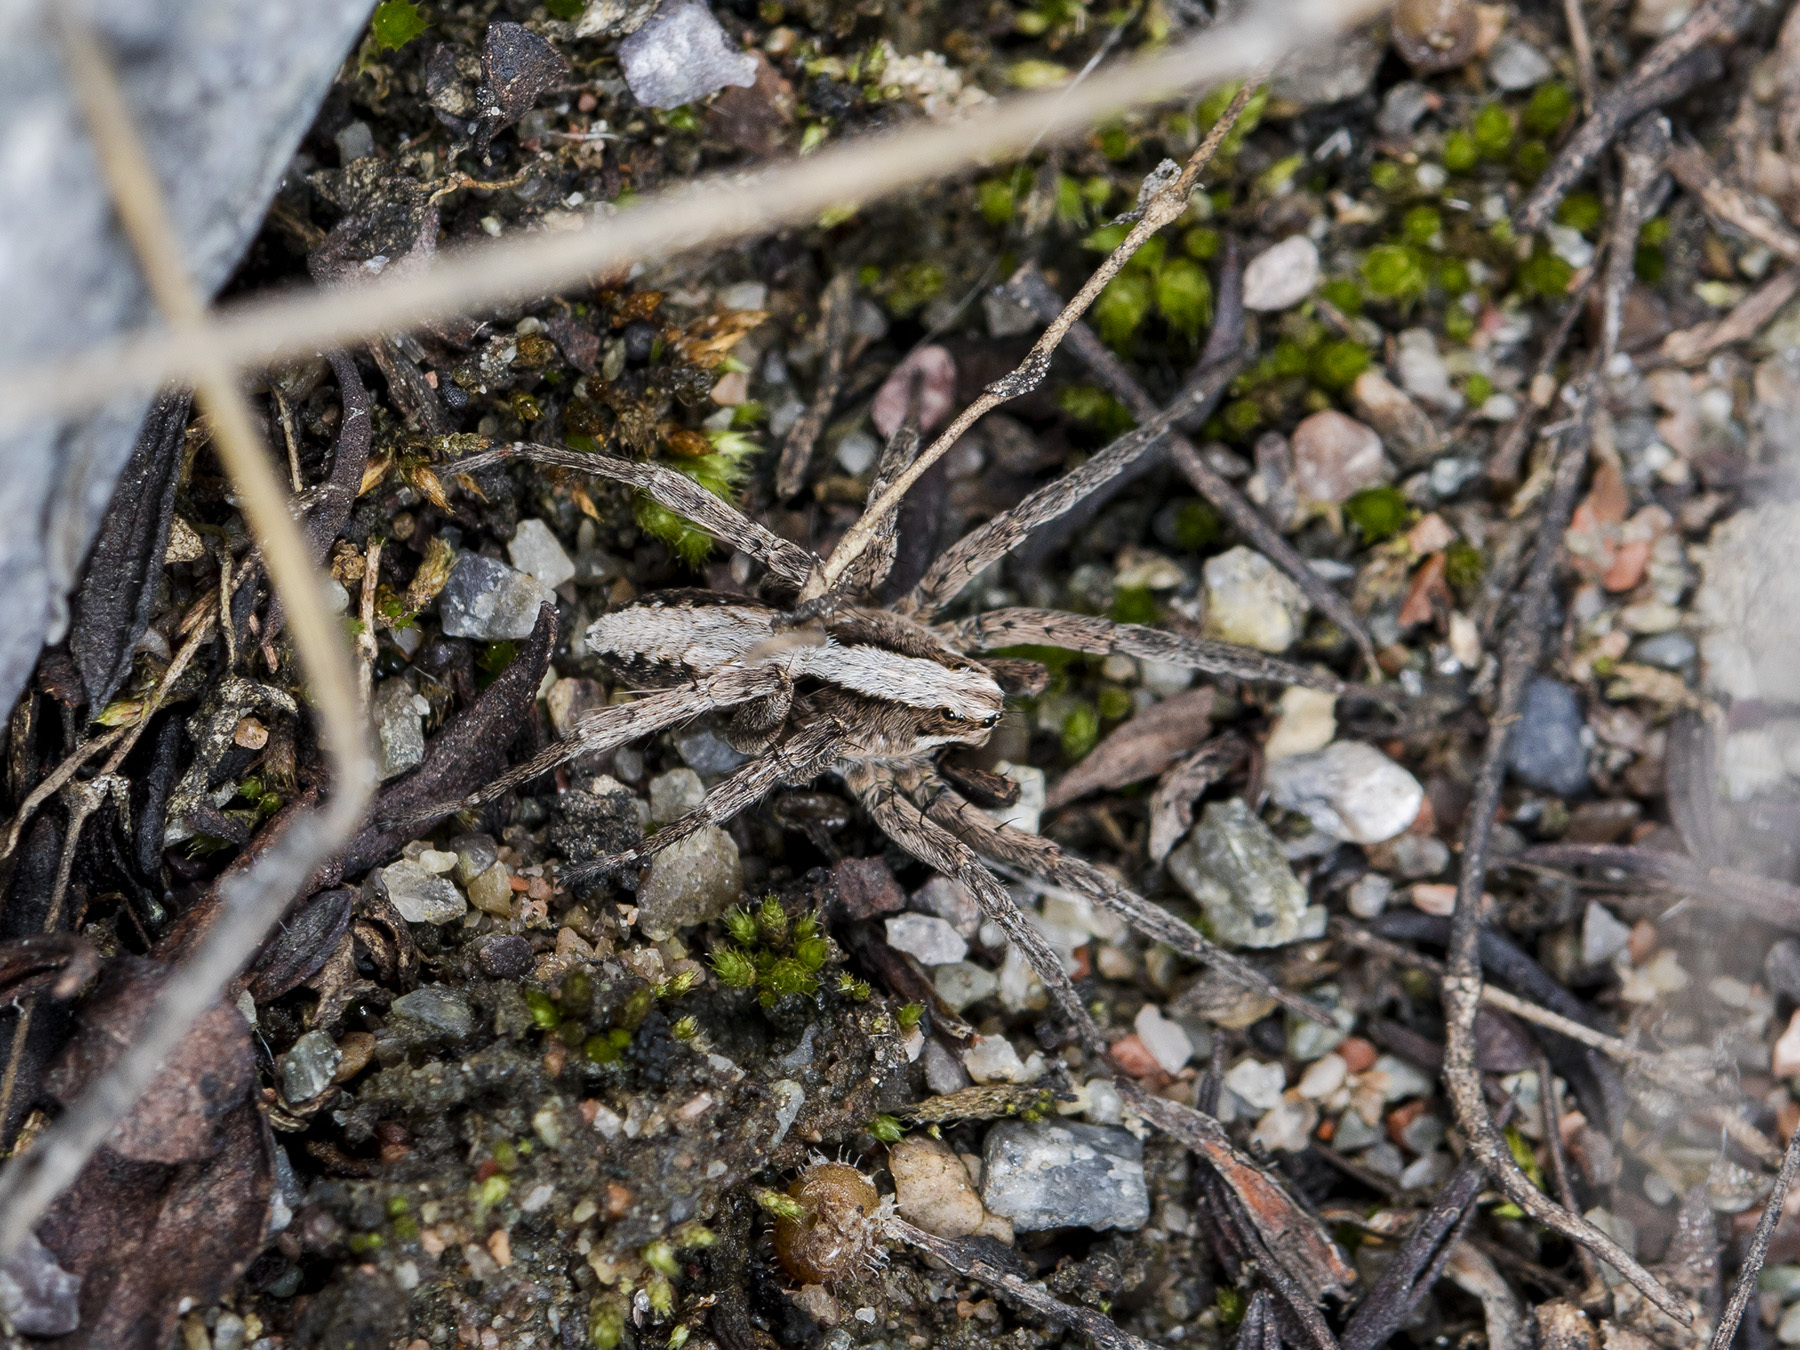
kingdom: Animalia
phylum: Arthropoda
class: Arachnida
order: Araneae
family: Lycosidae
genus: Alopecosa
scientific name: Alopecosa cursor
